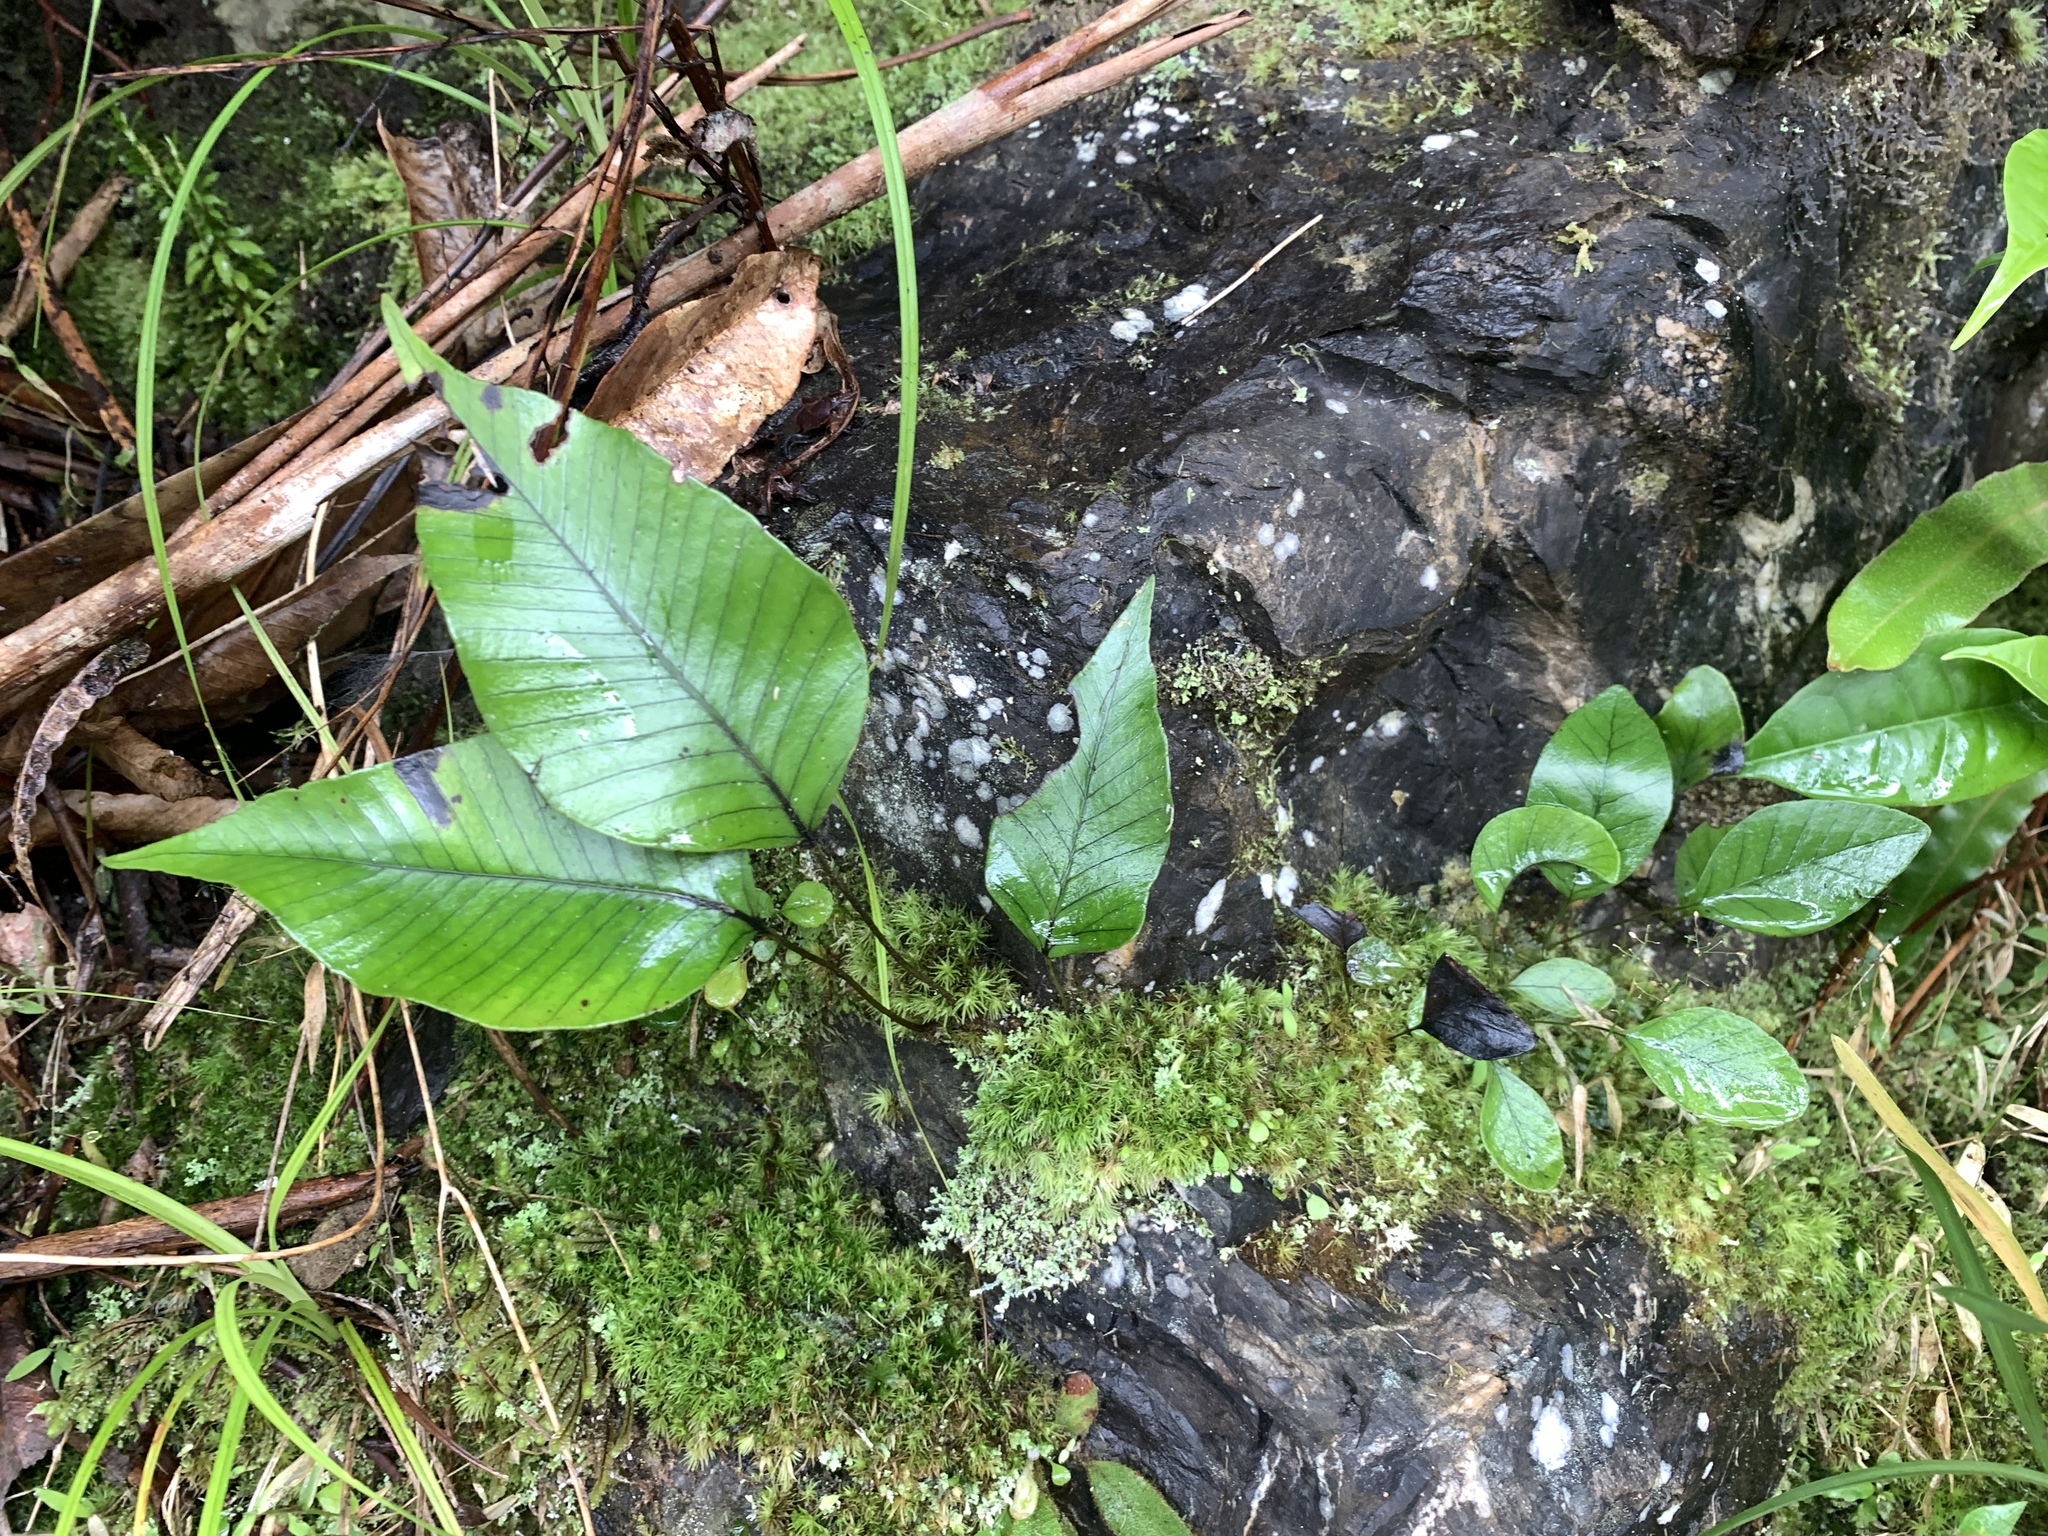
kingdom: Plantae
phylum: Tracheophyta
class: Polypodiopsida
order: Polypodiales
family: Polypodiaceae
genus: Selliguea
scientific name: Selliguea taeniata
